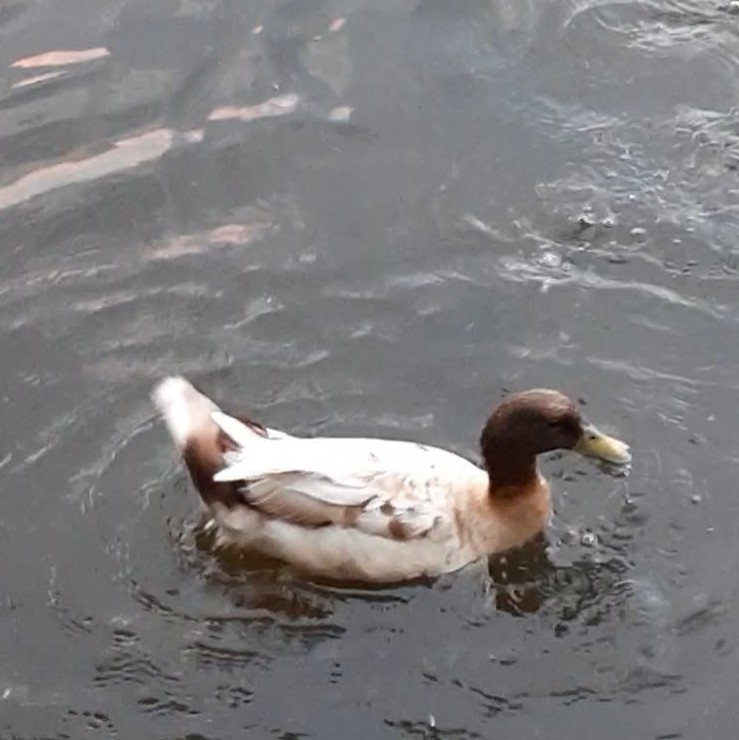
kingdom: Animalia
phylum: Chordata
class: Aves
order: Anseriformes
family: Anatidae
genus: Anas
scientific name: Anas platyrhynchos
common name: Mallard
